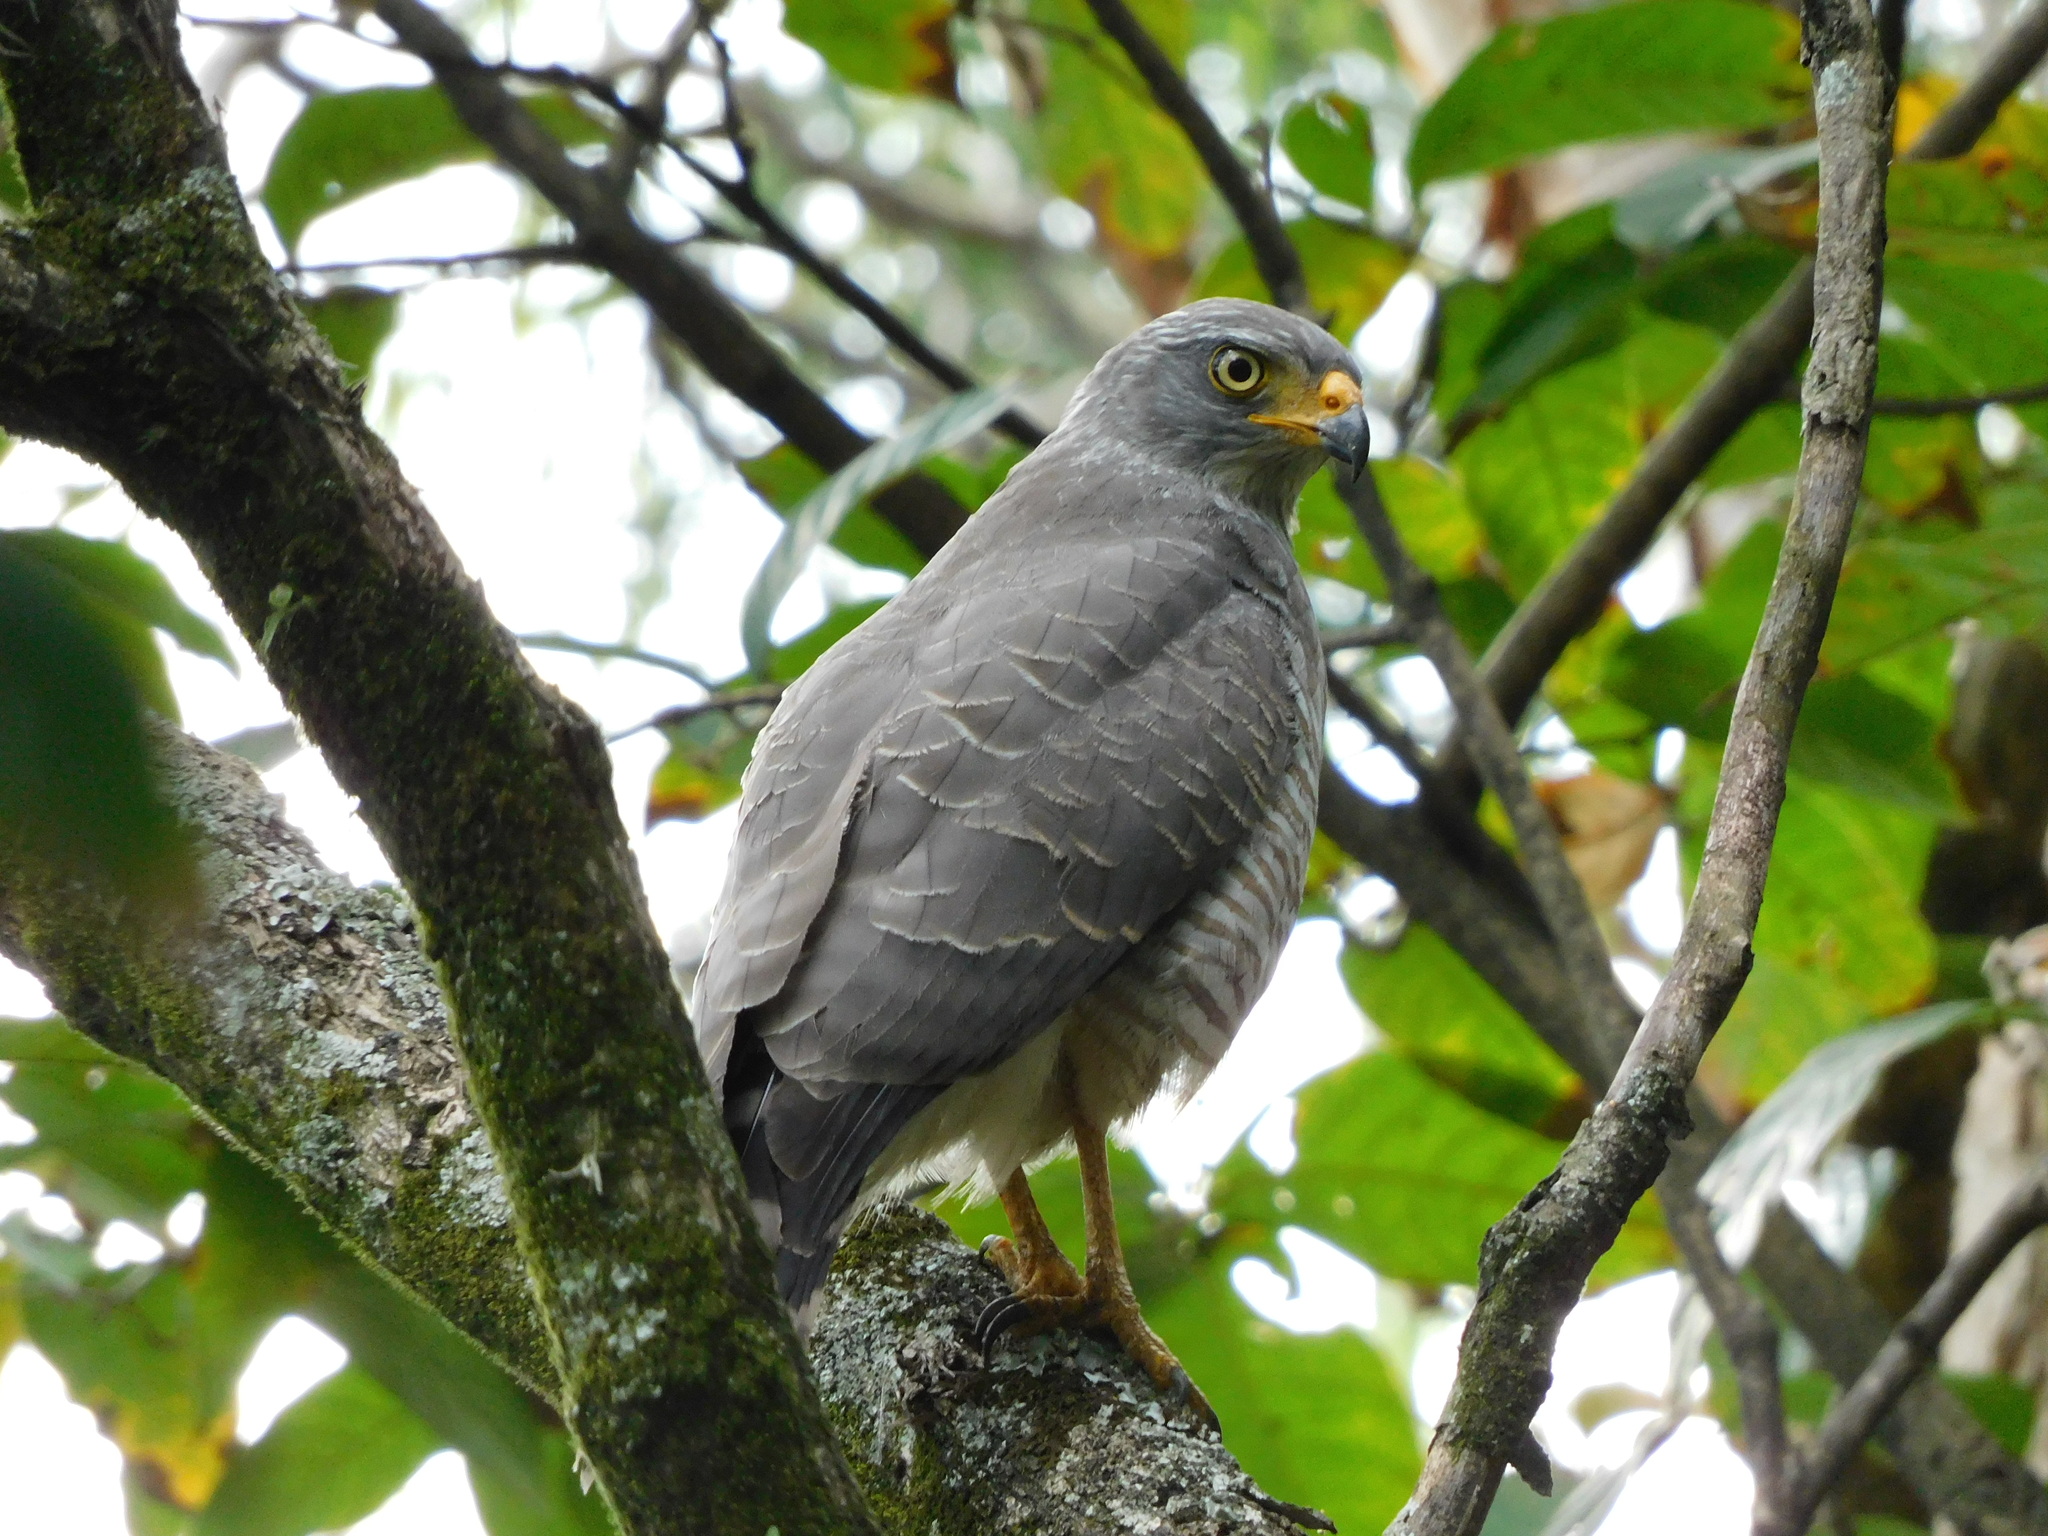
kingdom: Animalia
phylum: Chordata
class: Aves
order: Accipitriformes
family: Accipitridae
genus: Rupornis
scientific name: Rupornis magnirostris
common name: Roadside hawk
